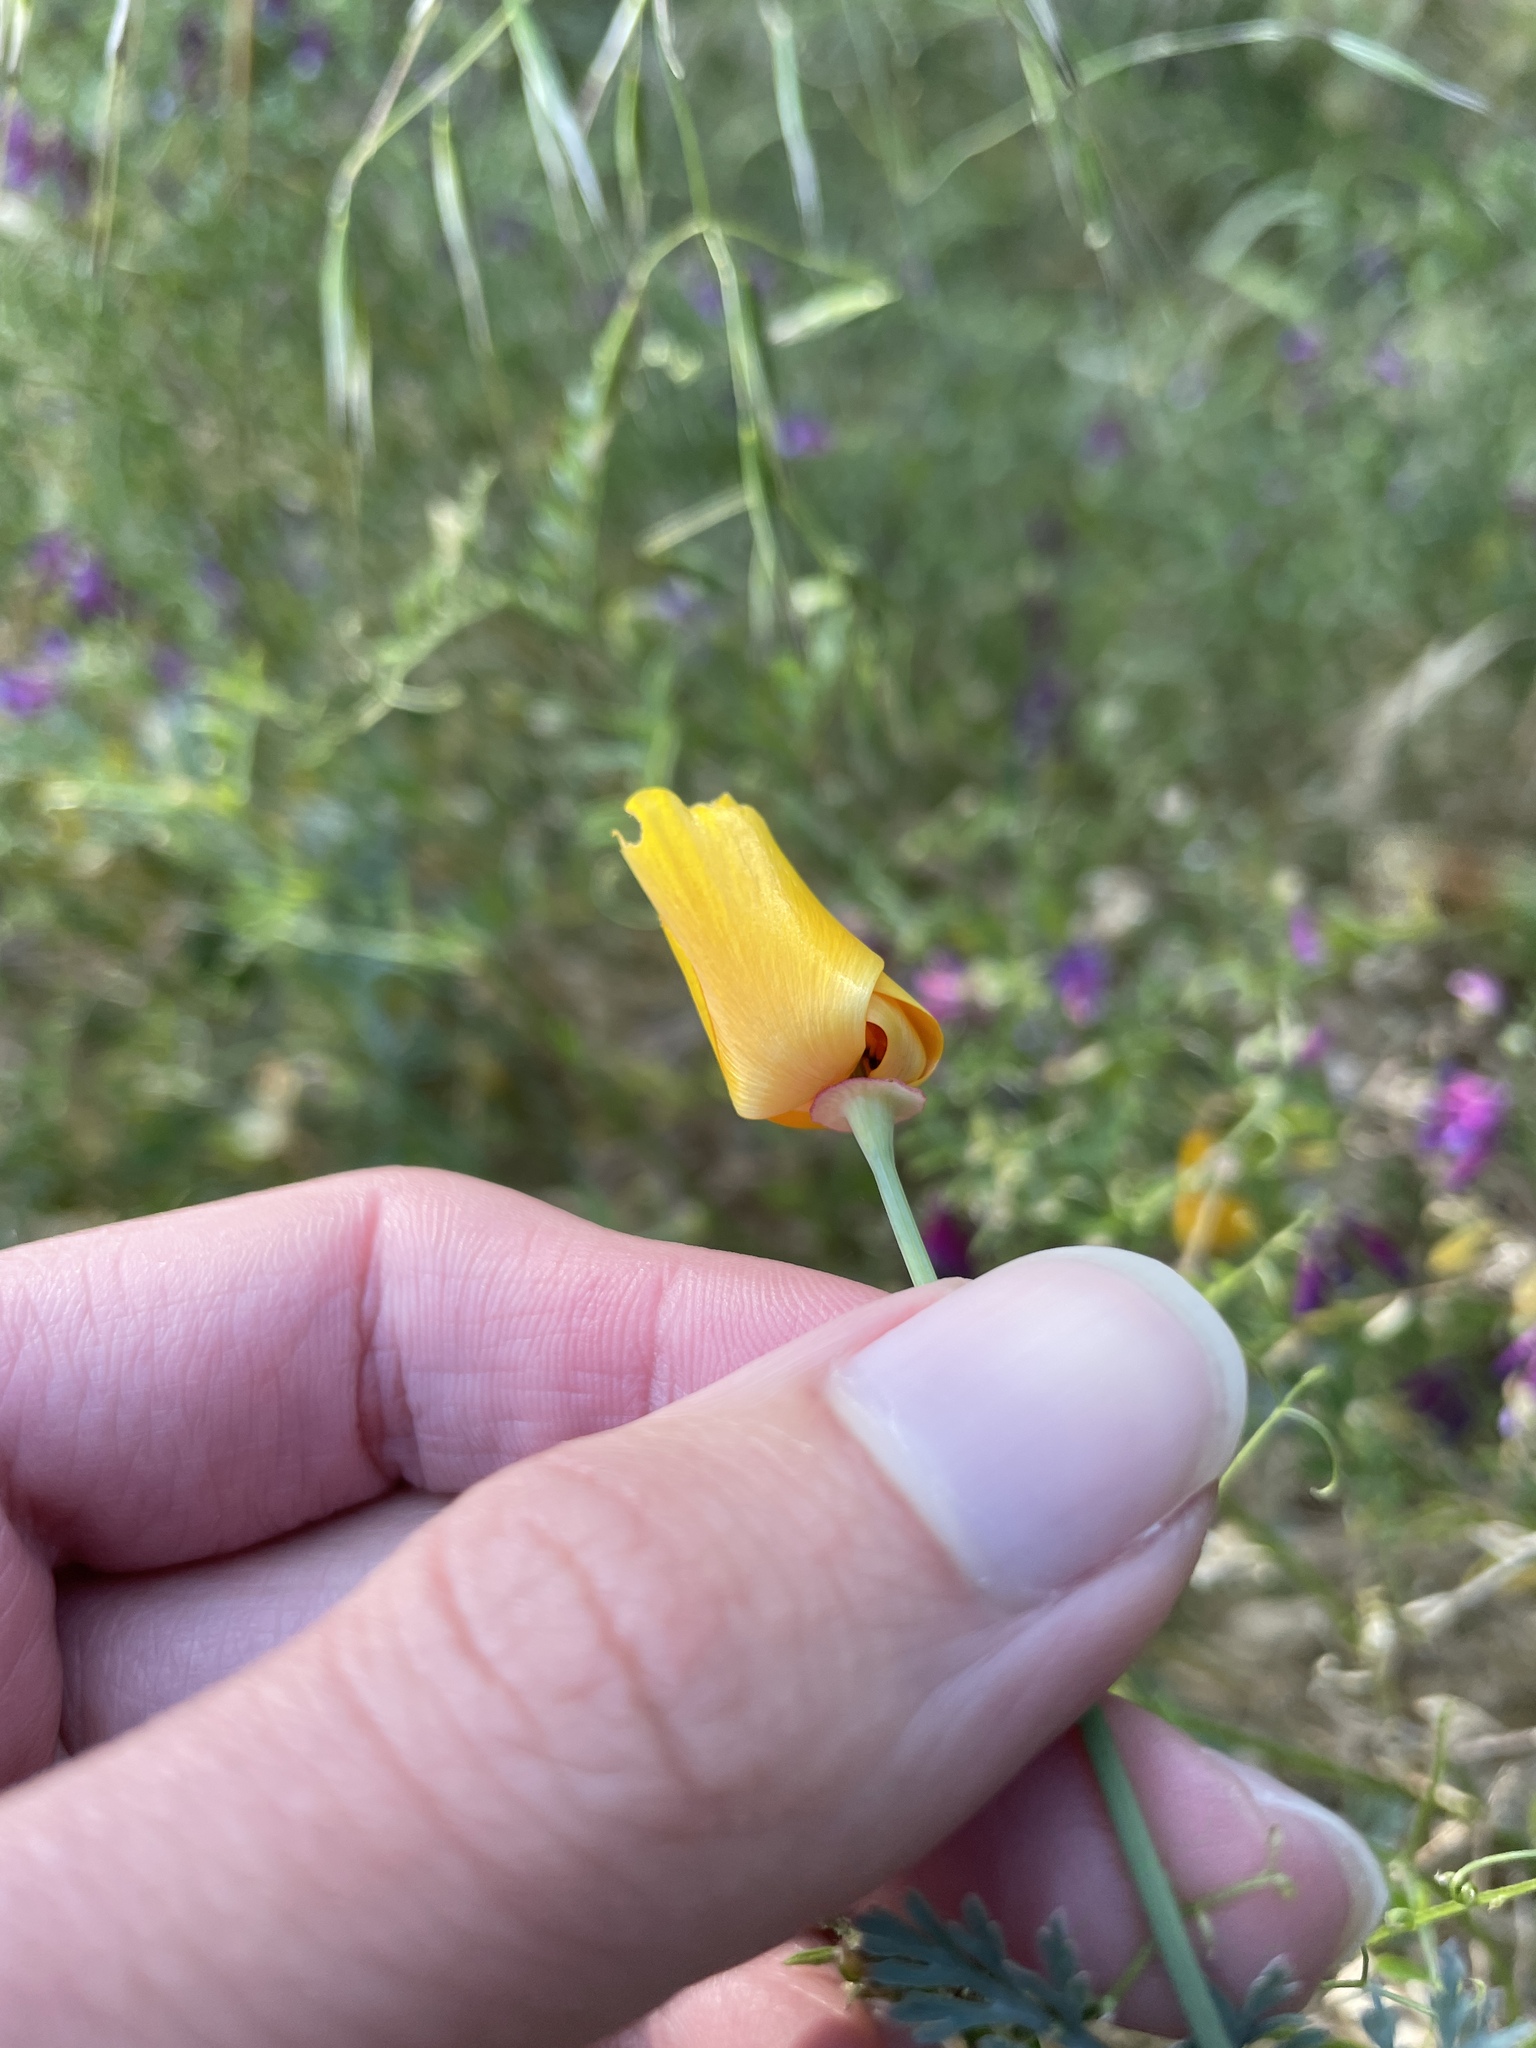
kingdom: Plantae
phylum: Tracheophyta
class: Magnoliopsida
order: Ranunculales
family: Papaveraceae
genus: Eschscholzia
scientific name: Eschscholzia californica
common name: California poppy
